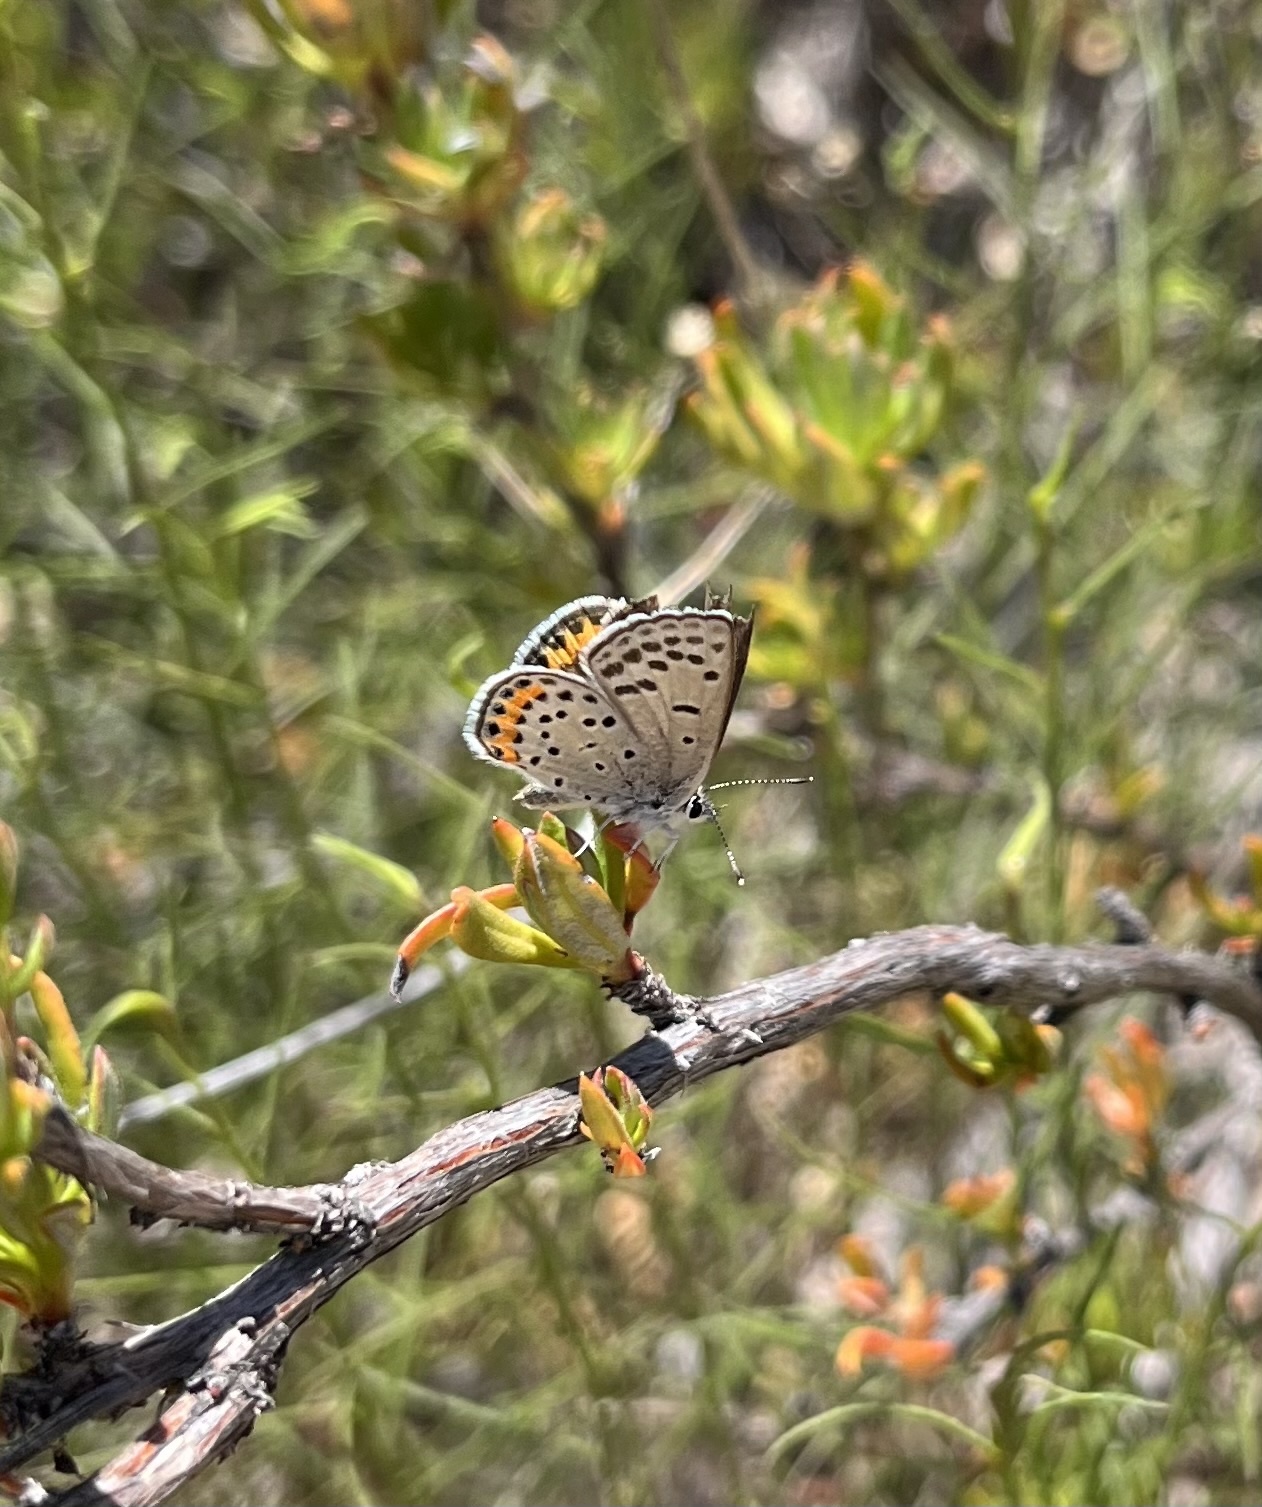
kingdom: Animalia
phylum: Arthropoda
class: Insecta
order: Lepidoptera
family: Lycaenidae
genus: Icaricia
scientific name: Icaricia acmon
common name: Acmon blue
